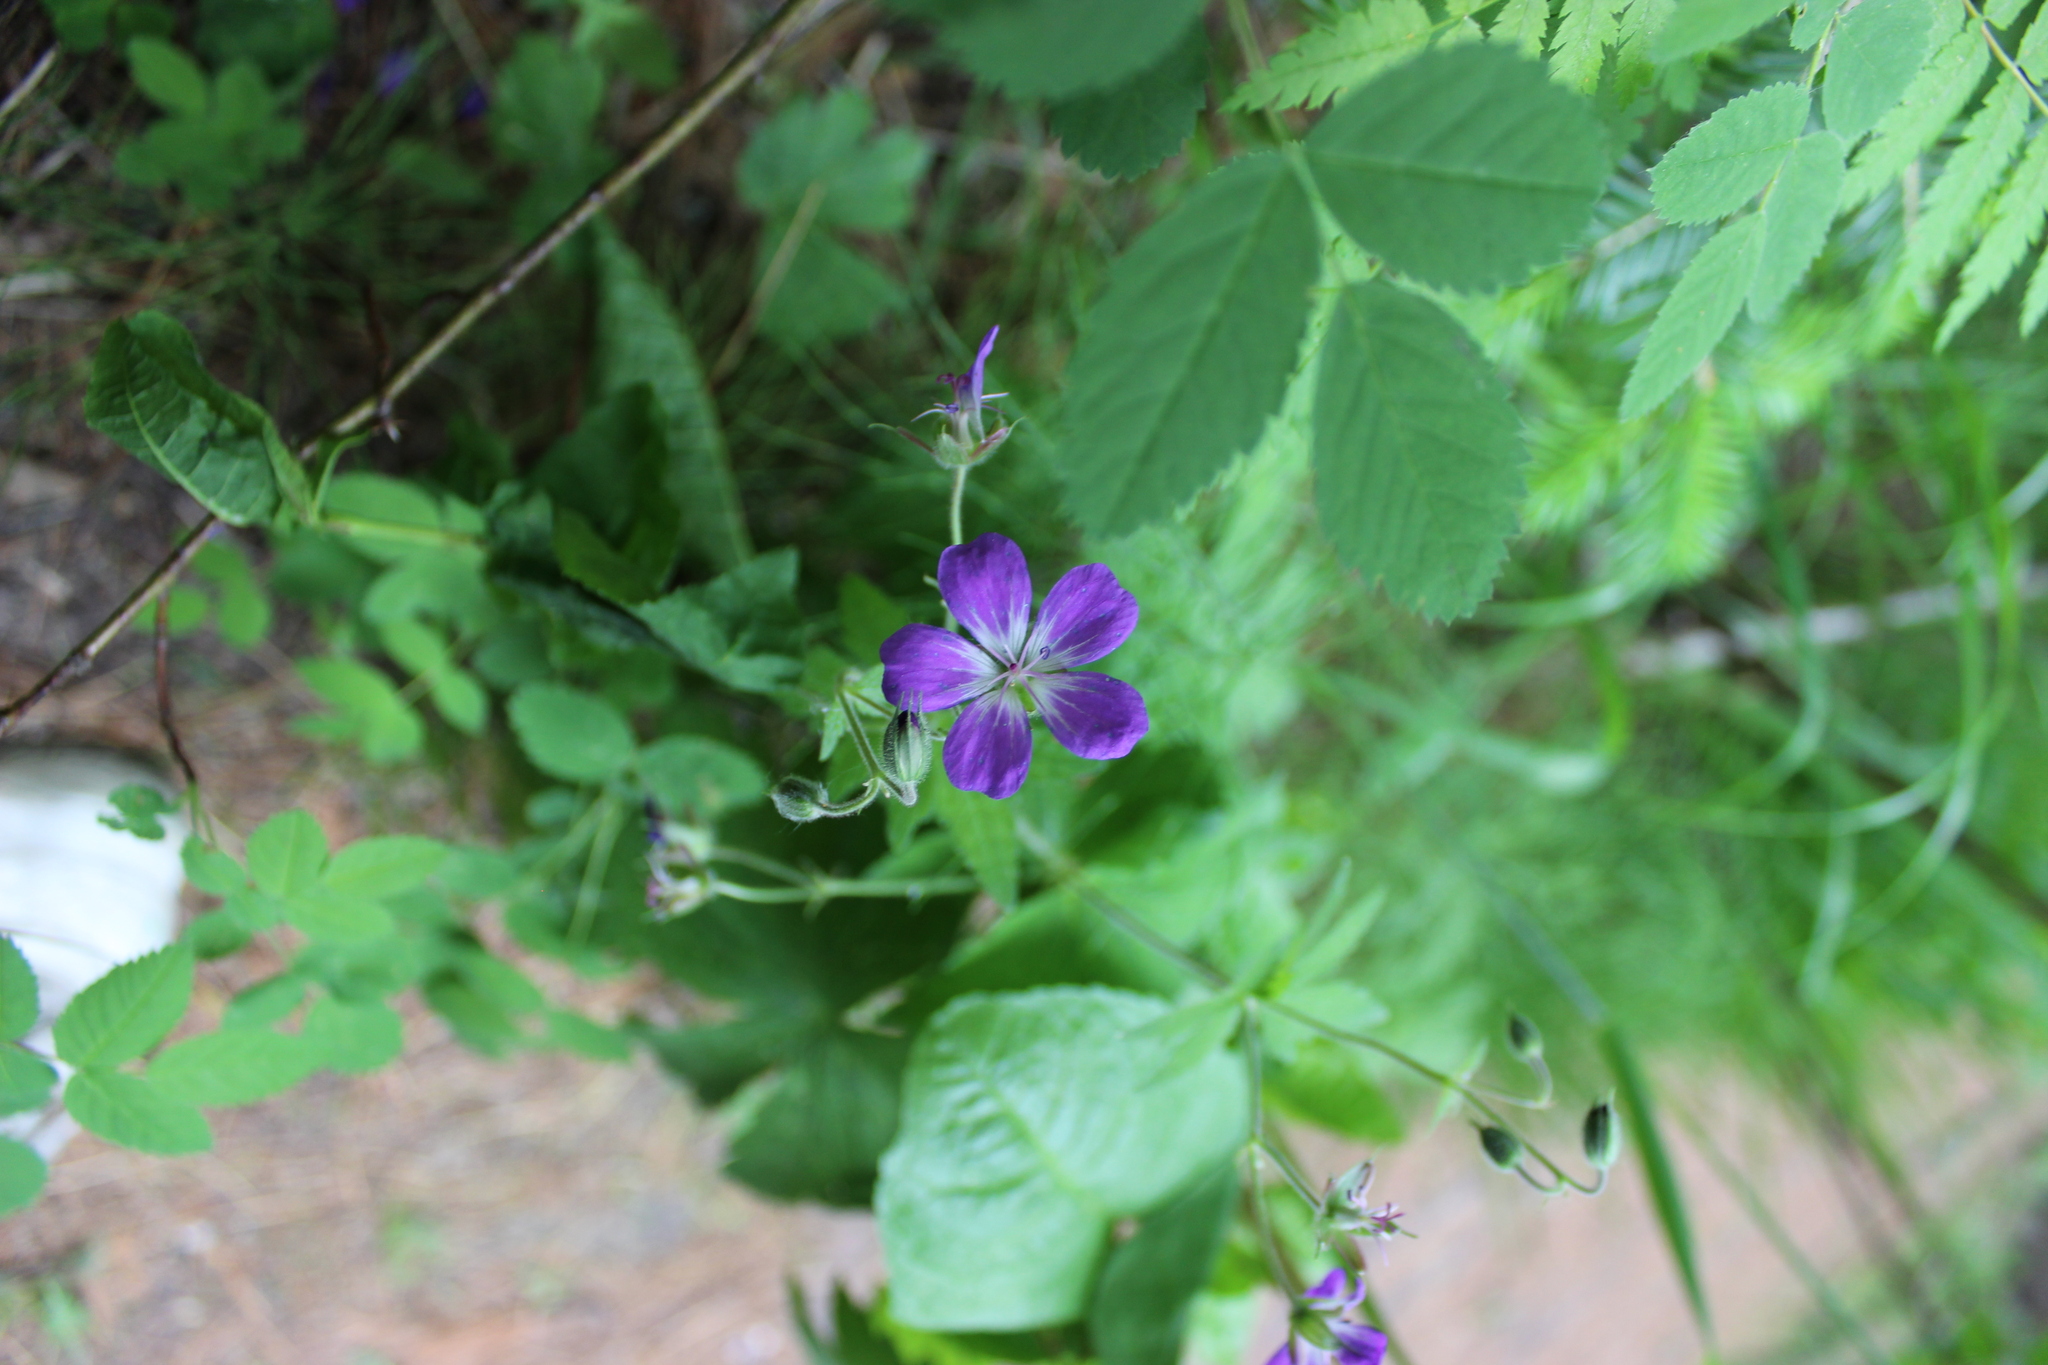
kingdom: Plantae
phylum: Tracheophyta
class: Magnoliopsida
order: Geraniales
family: Geraniaceae
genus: Geranium
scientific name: Geranium sylvaticum
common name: Wood crane's-bill
